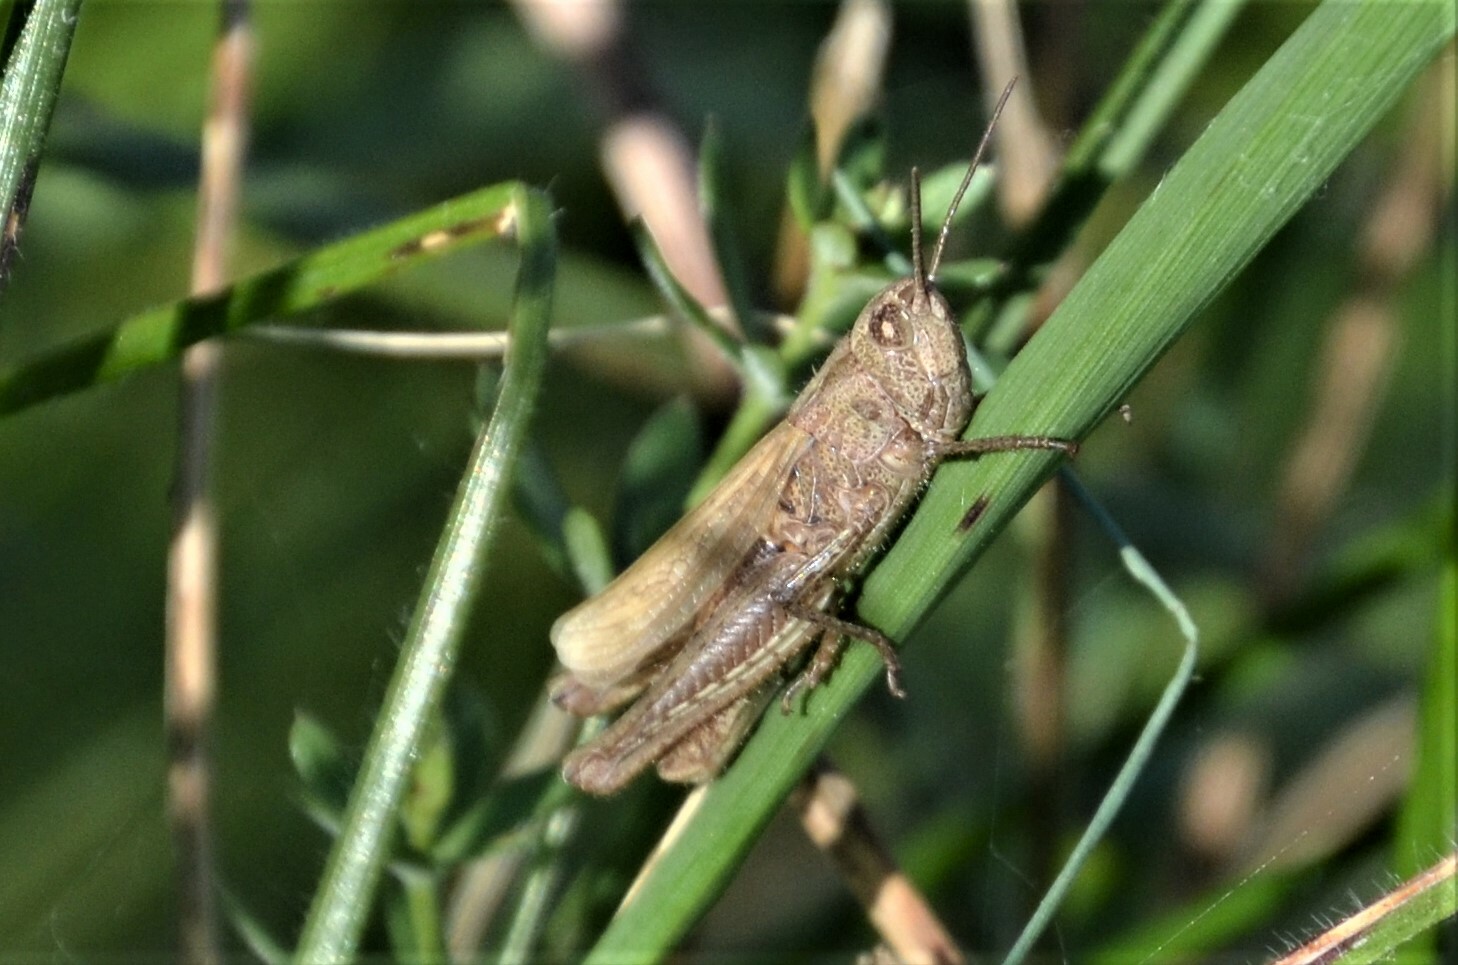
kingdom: Animalia
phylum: Arthropoda
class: Insecta
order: Orthoptera
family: Acrididae
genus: Chorthippus
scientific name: Chorthippus apricarius
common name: Upland field grasshopper
